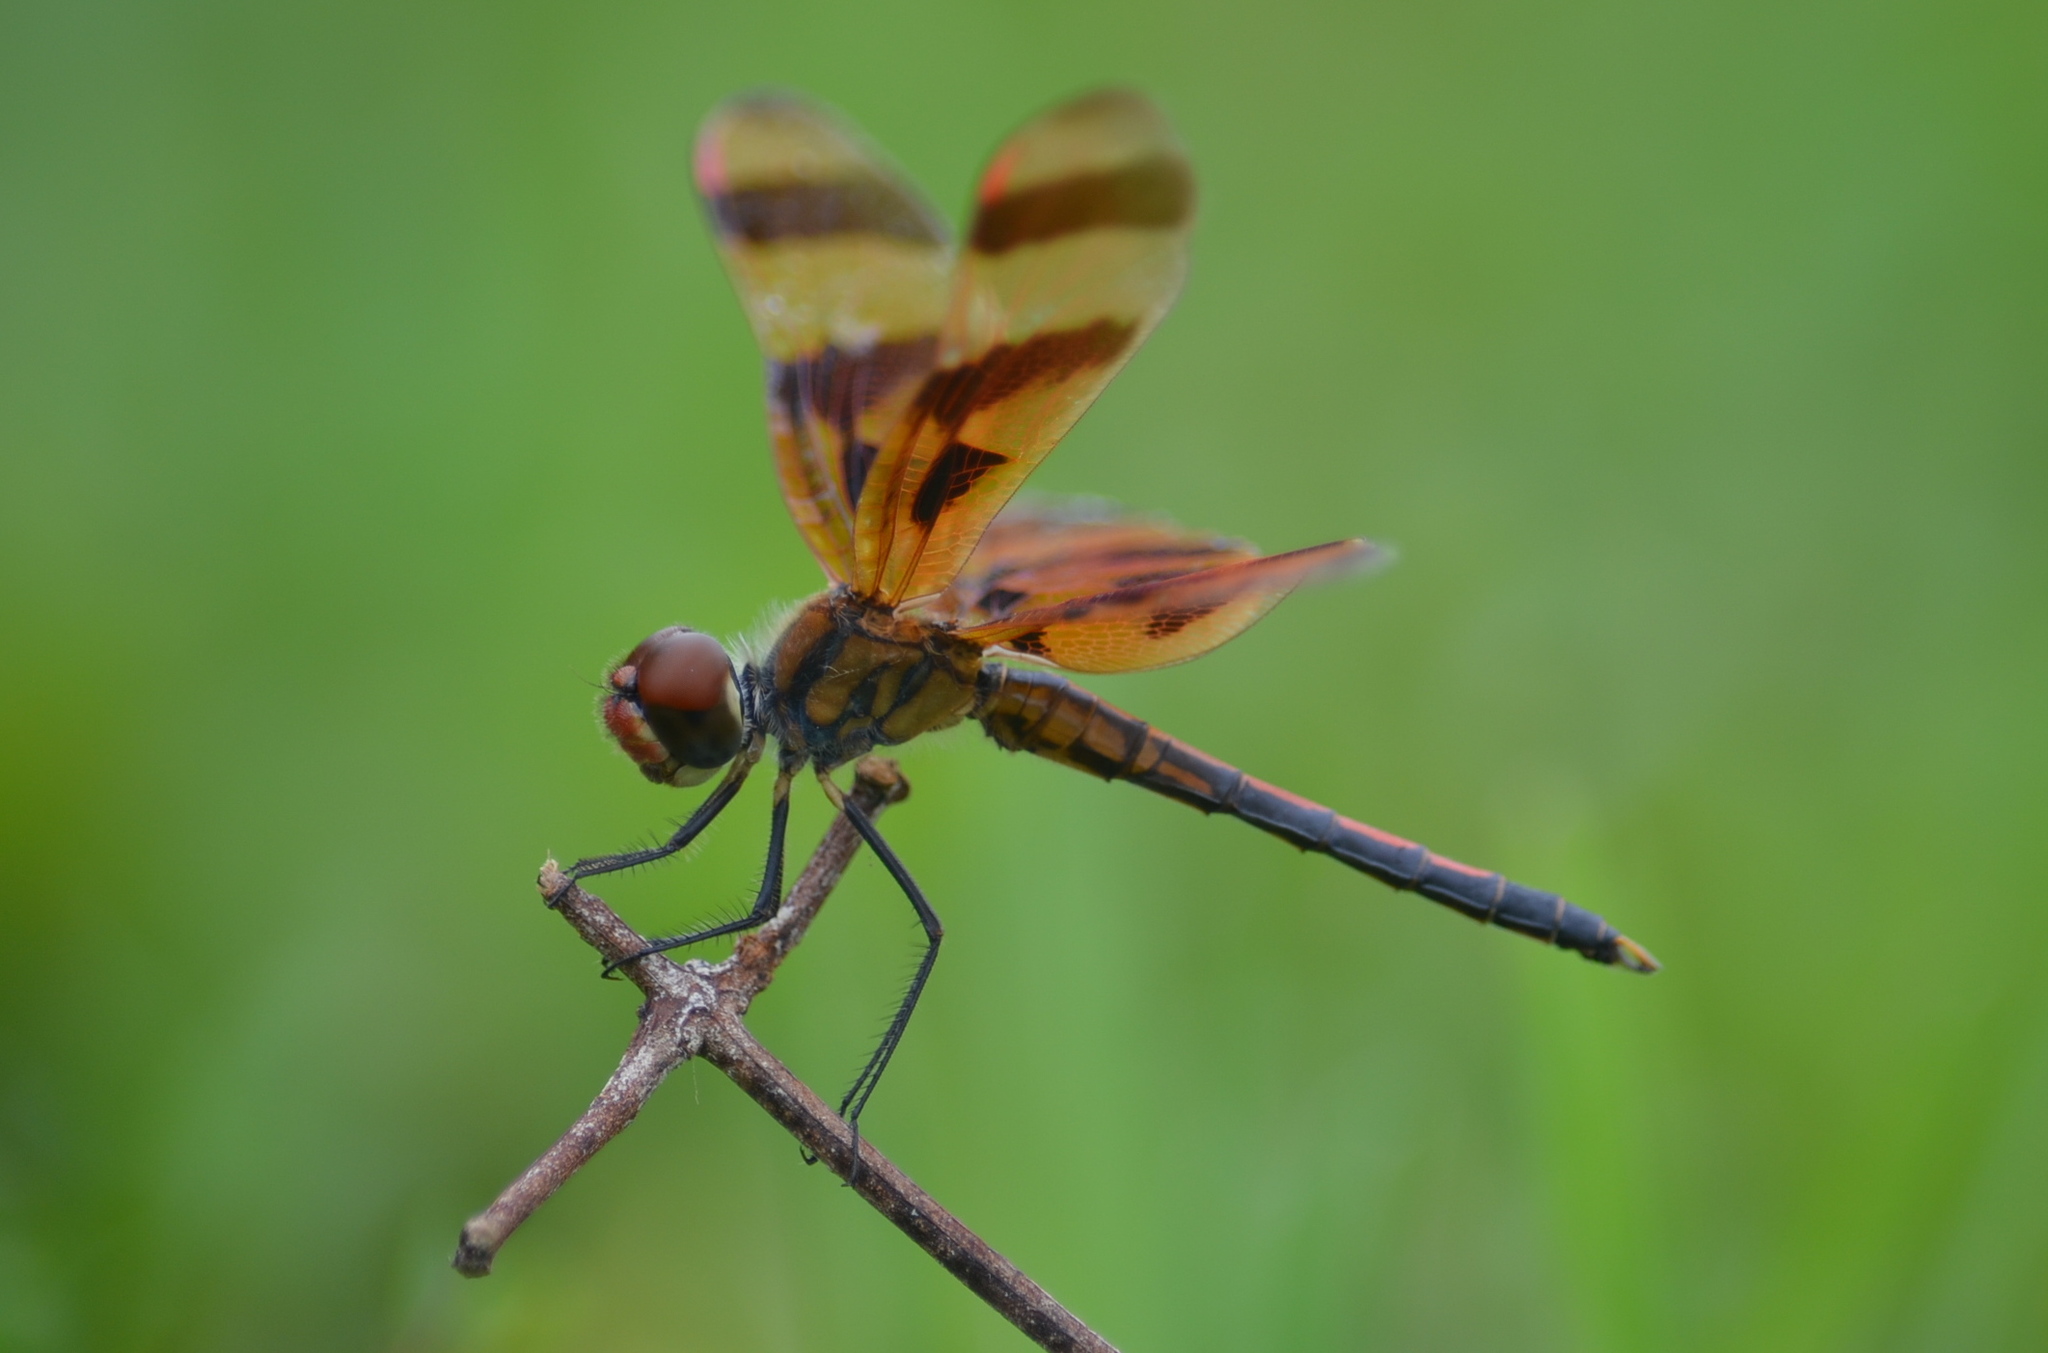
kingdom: Animalia
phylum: Arthropoda
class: Insecta
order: Odonata
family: Libellulidae
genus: Celithemis
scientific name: Celithemis eponina
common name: Halloween pennant
